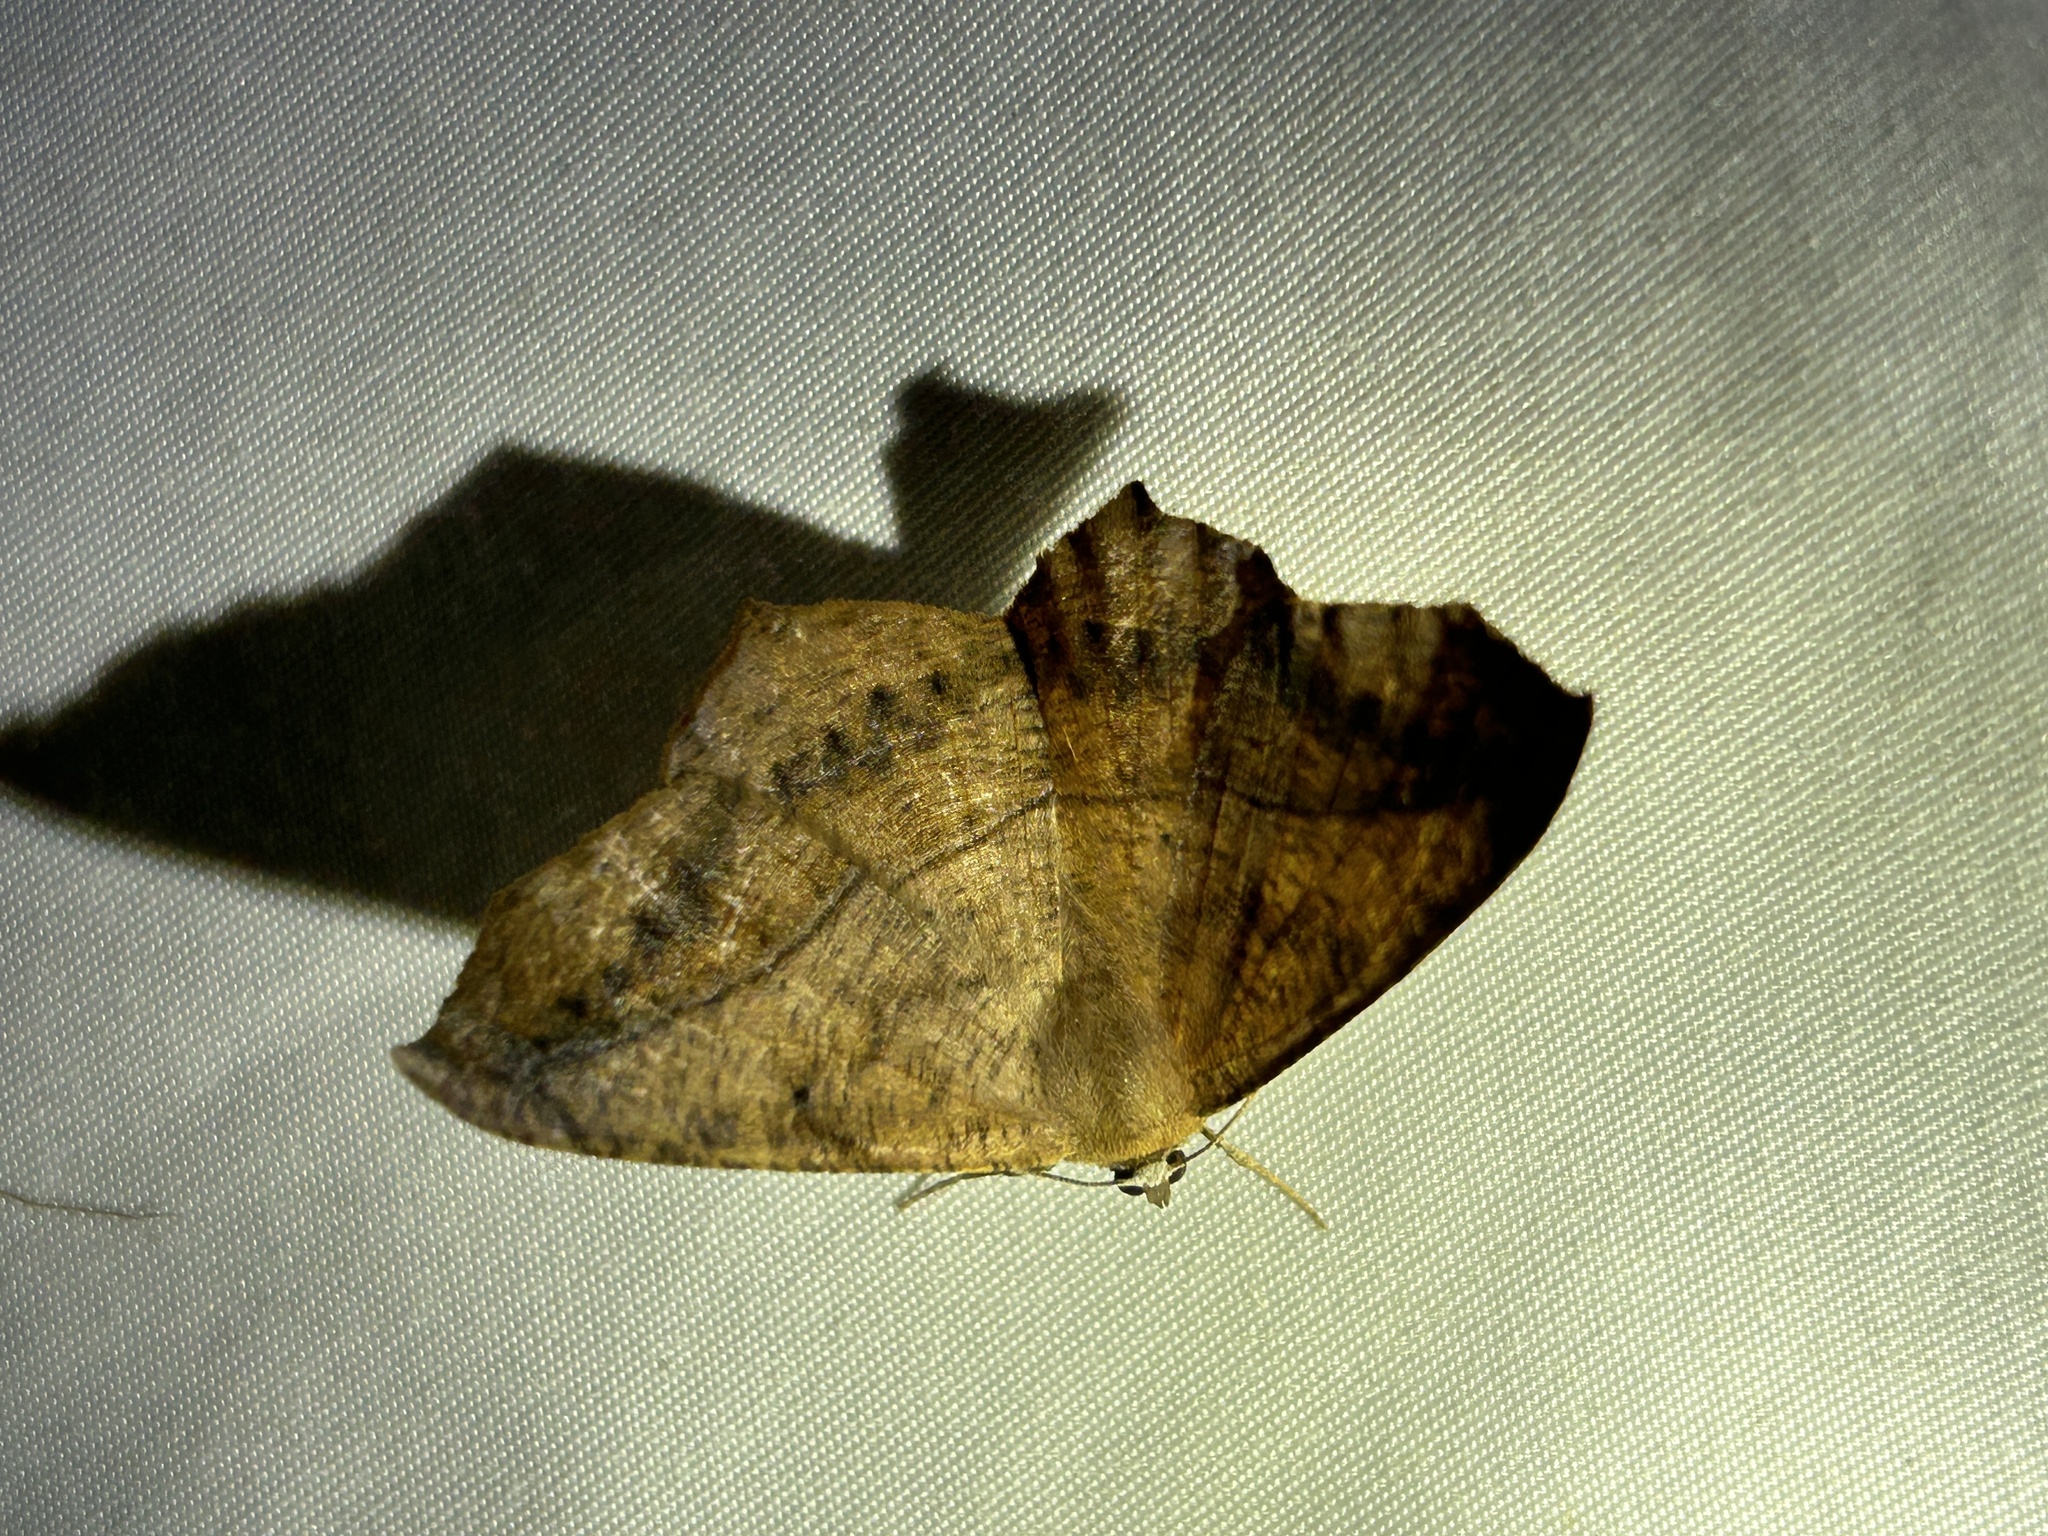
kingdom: Animalia
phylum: Arthropoda
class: Insecta
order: Lepidoptera
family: Geometridae
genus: Prochoerodes
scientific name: Prochoerodes lineola
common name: Large maple spanworm
